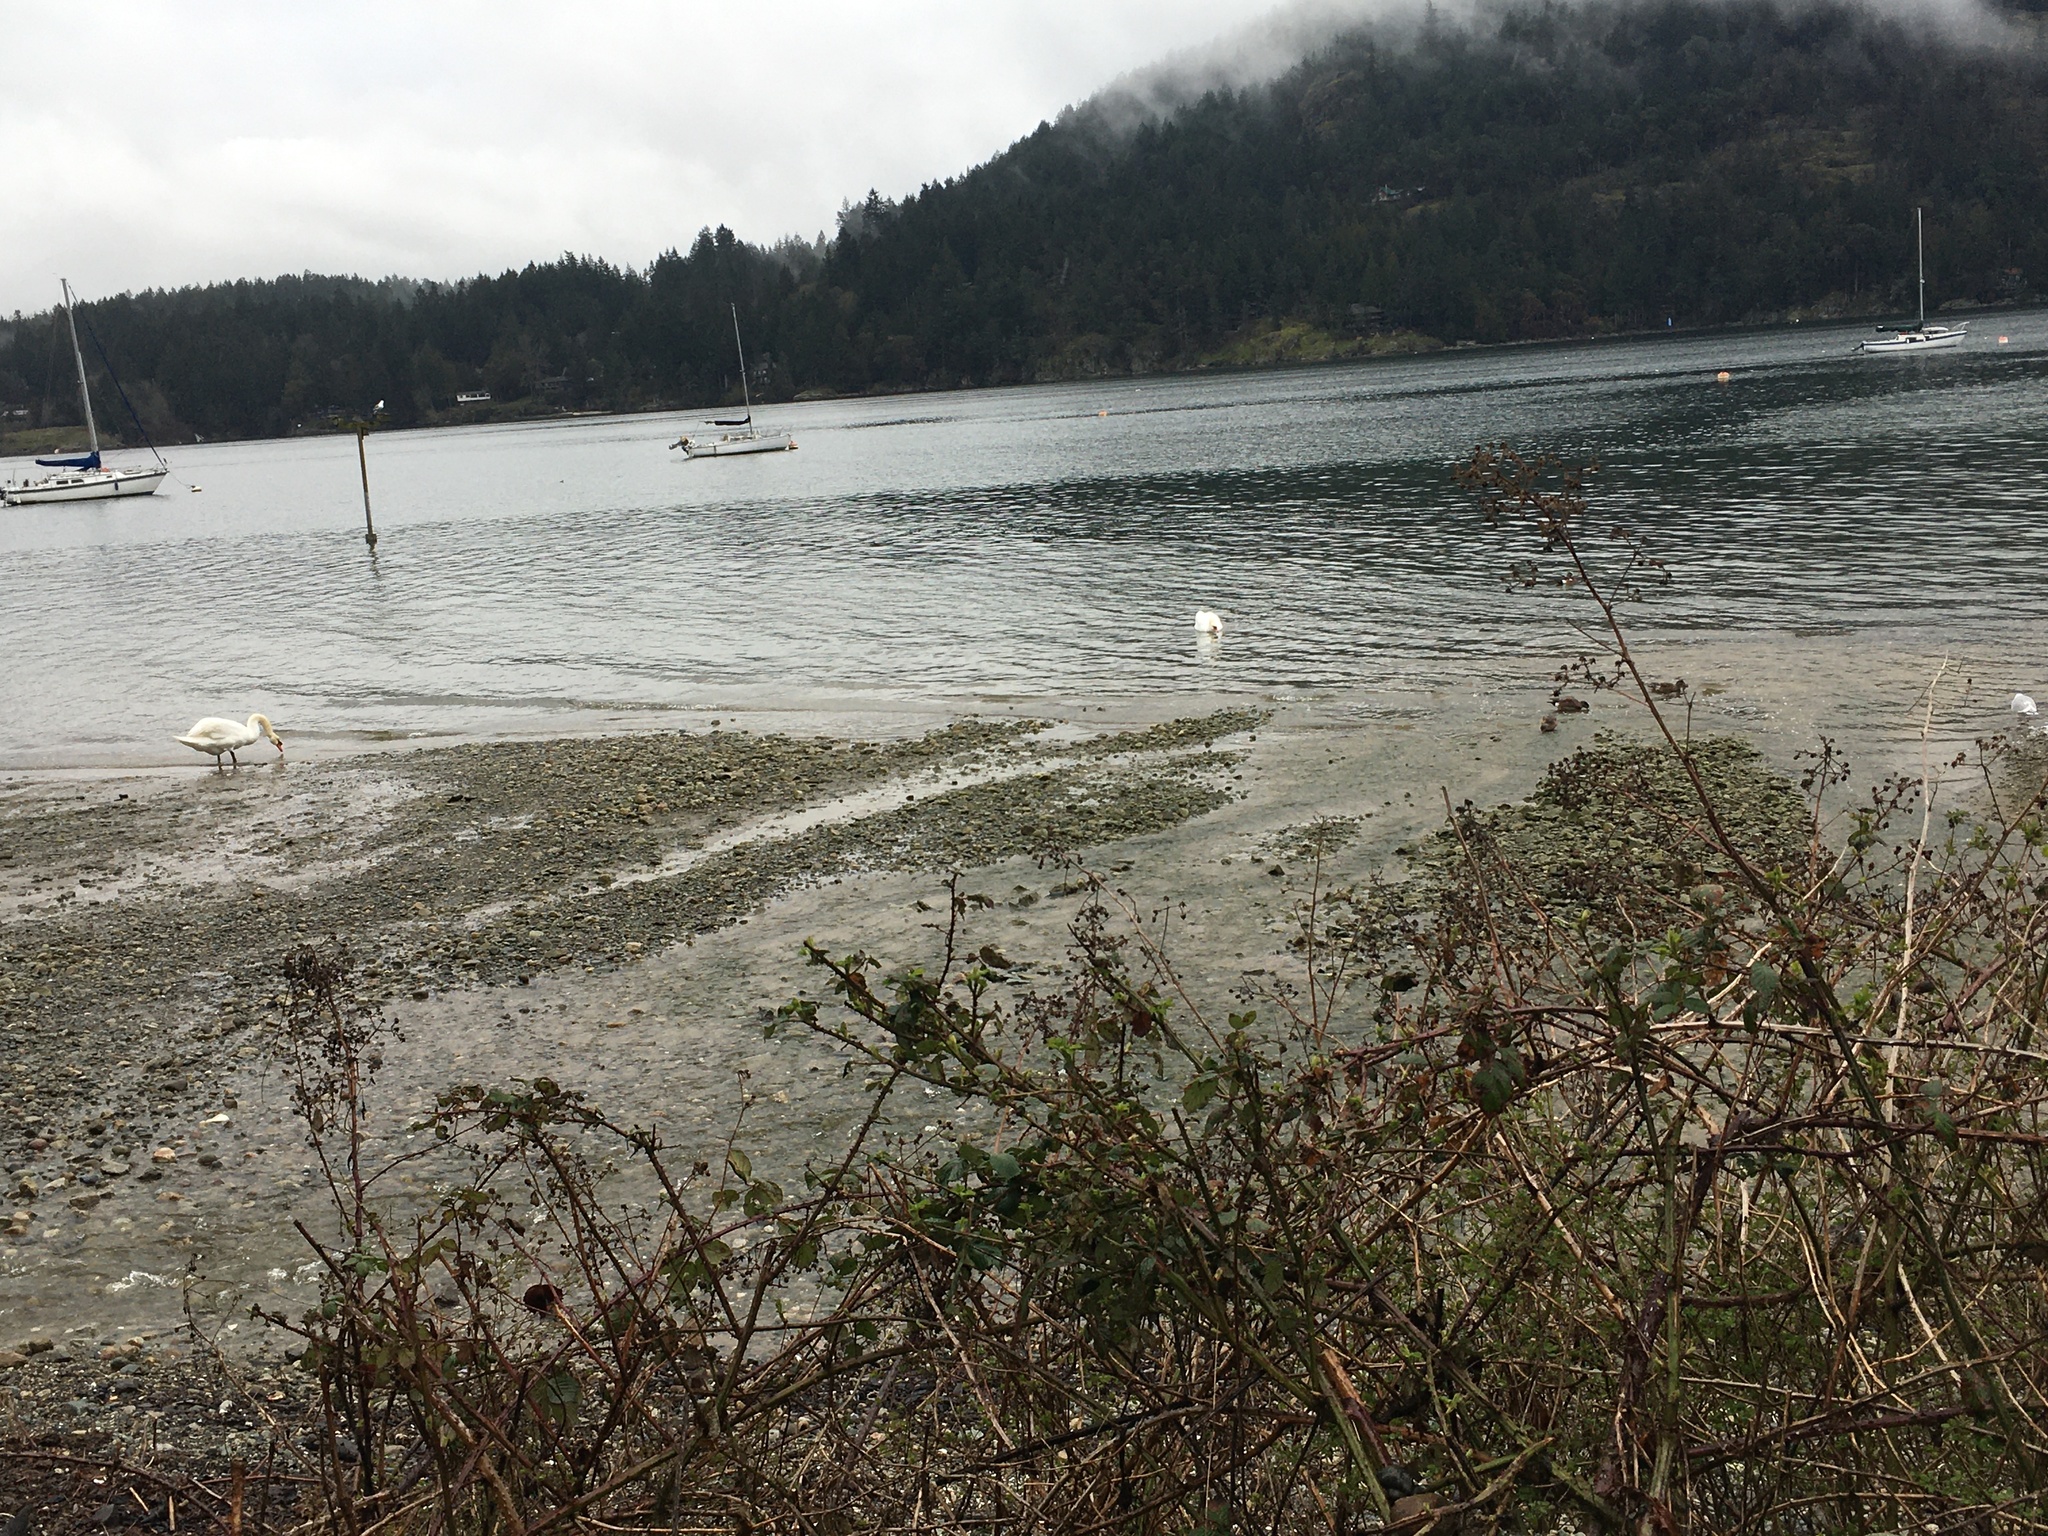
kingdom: Animalia
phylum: Chordata
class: Aves
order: Anseriformes
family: Anatidae
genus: Cygnus
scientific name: Cygnus olor
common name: Mute swan
